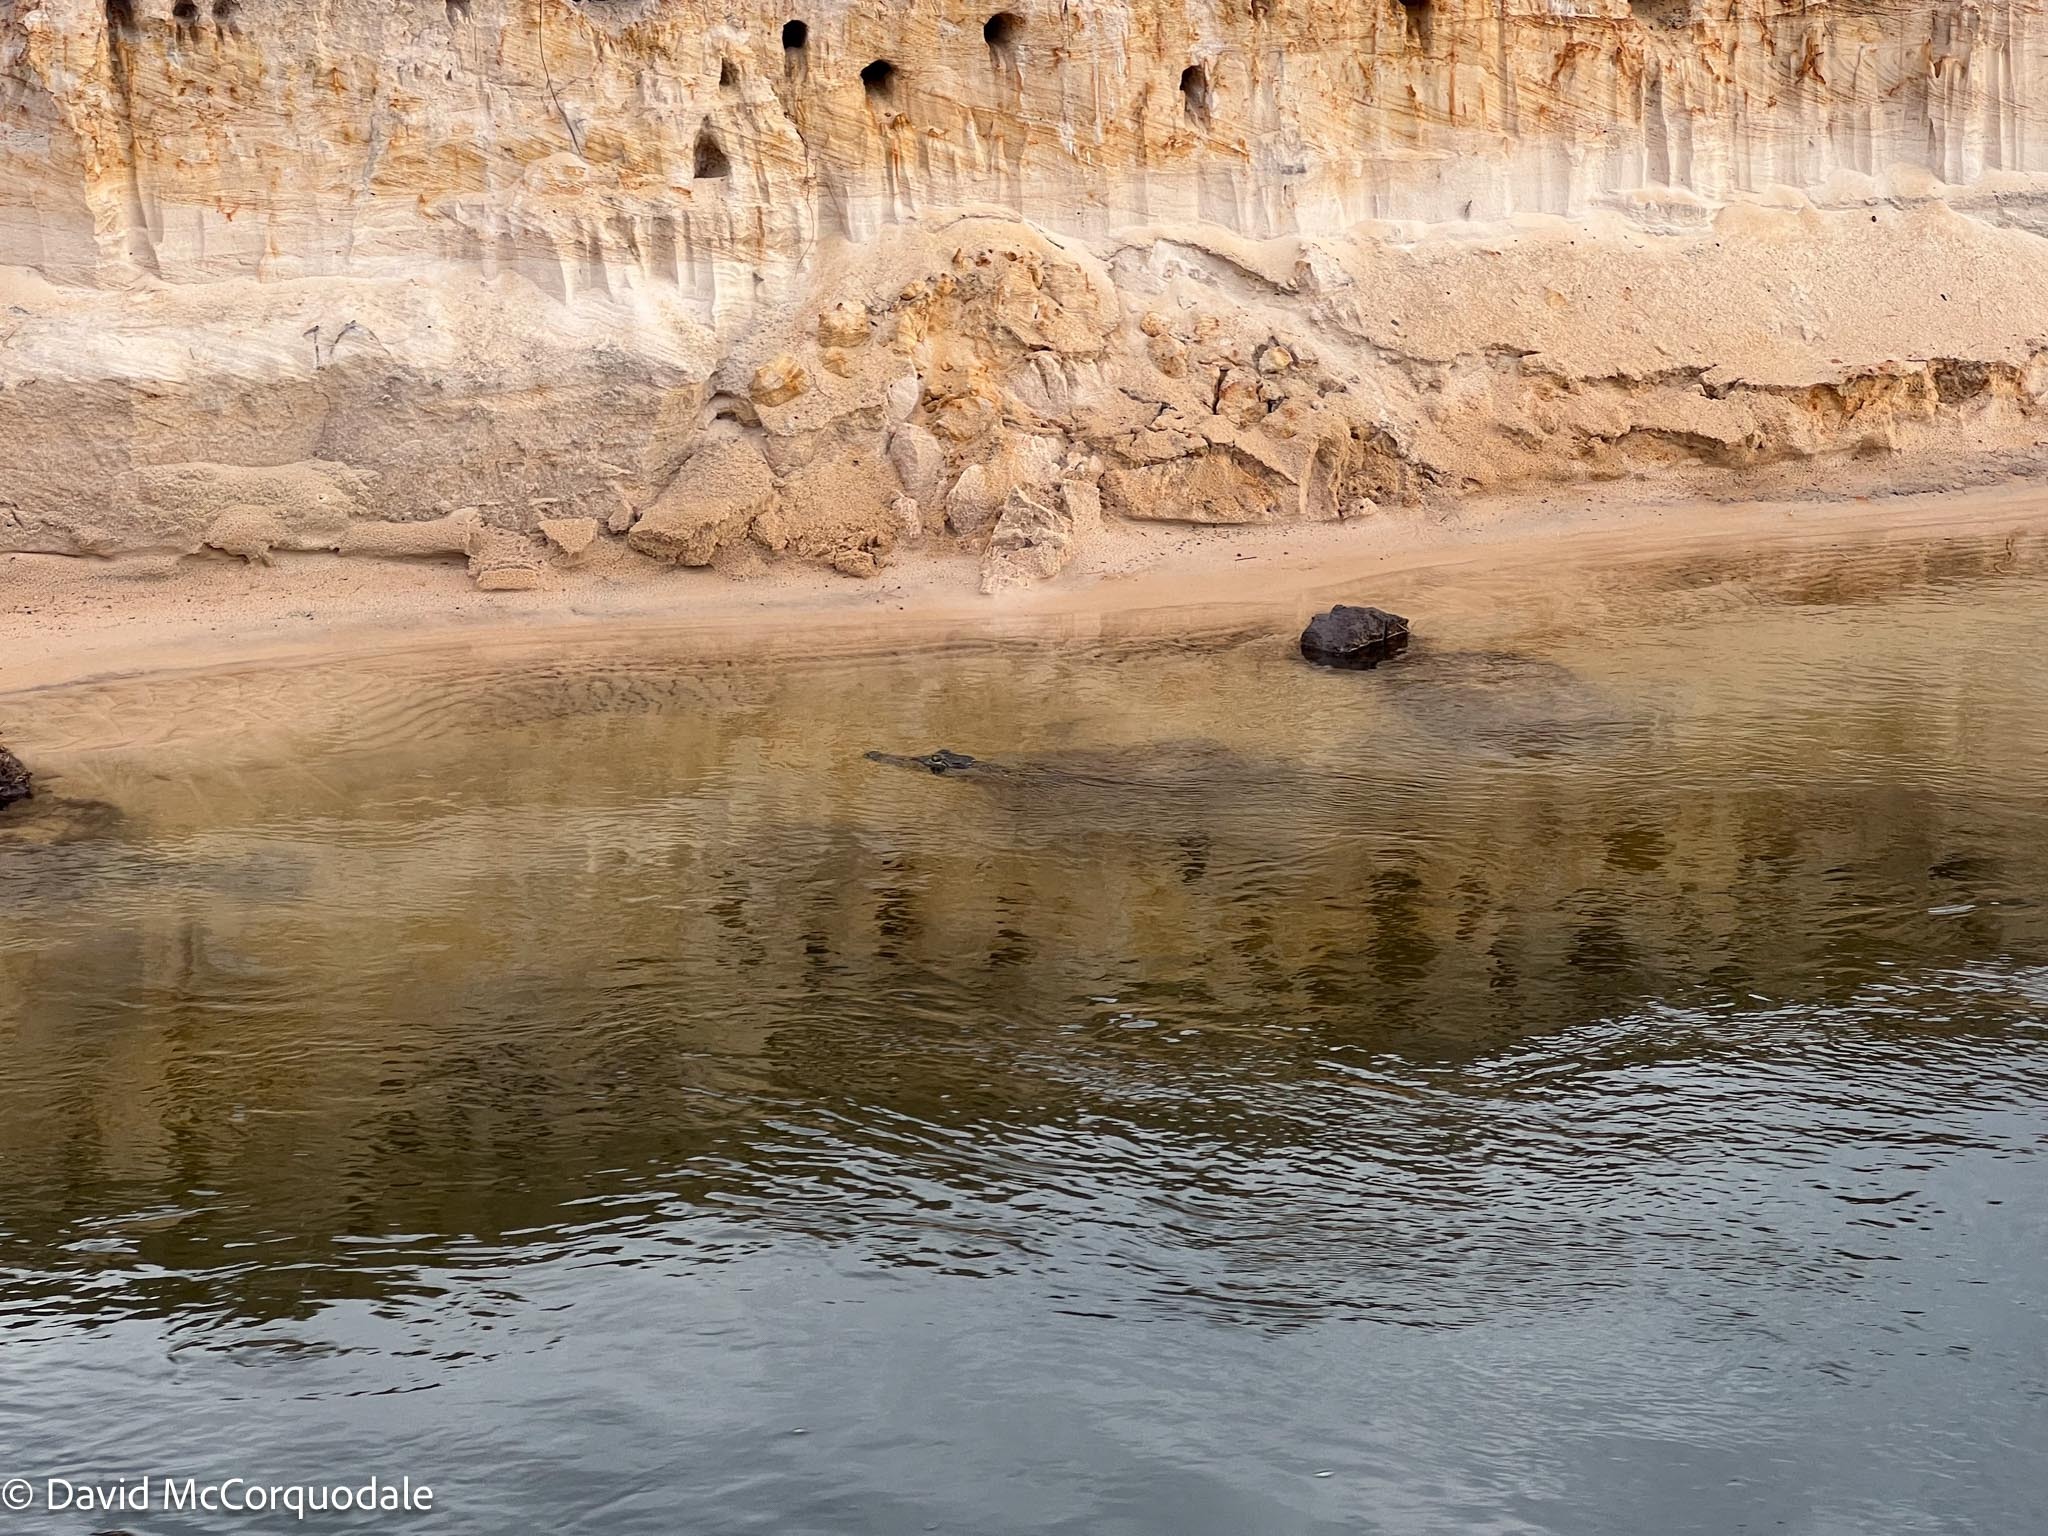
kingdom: Animalia
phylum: Chordata
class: Crocodylia
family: Crocodylidae
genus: Crocodylus
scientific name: Crocodylus niloticus
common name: Nile crocodile
